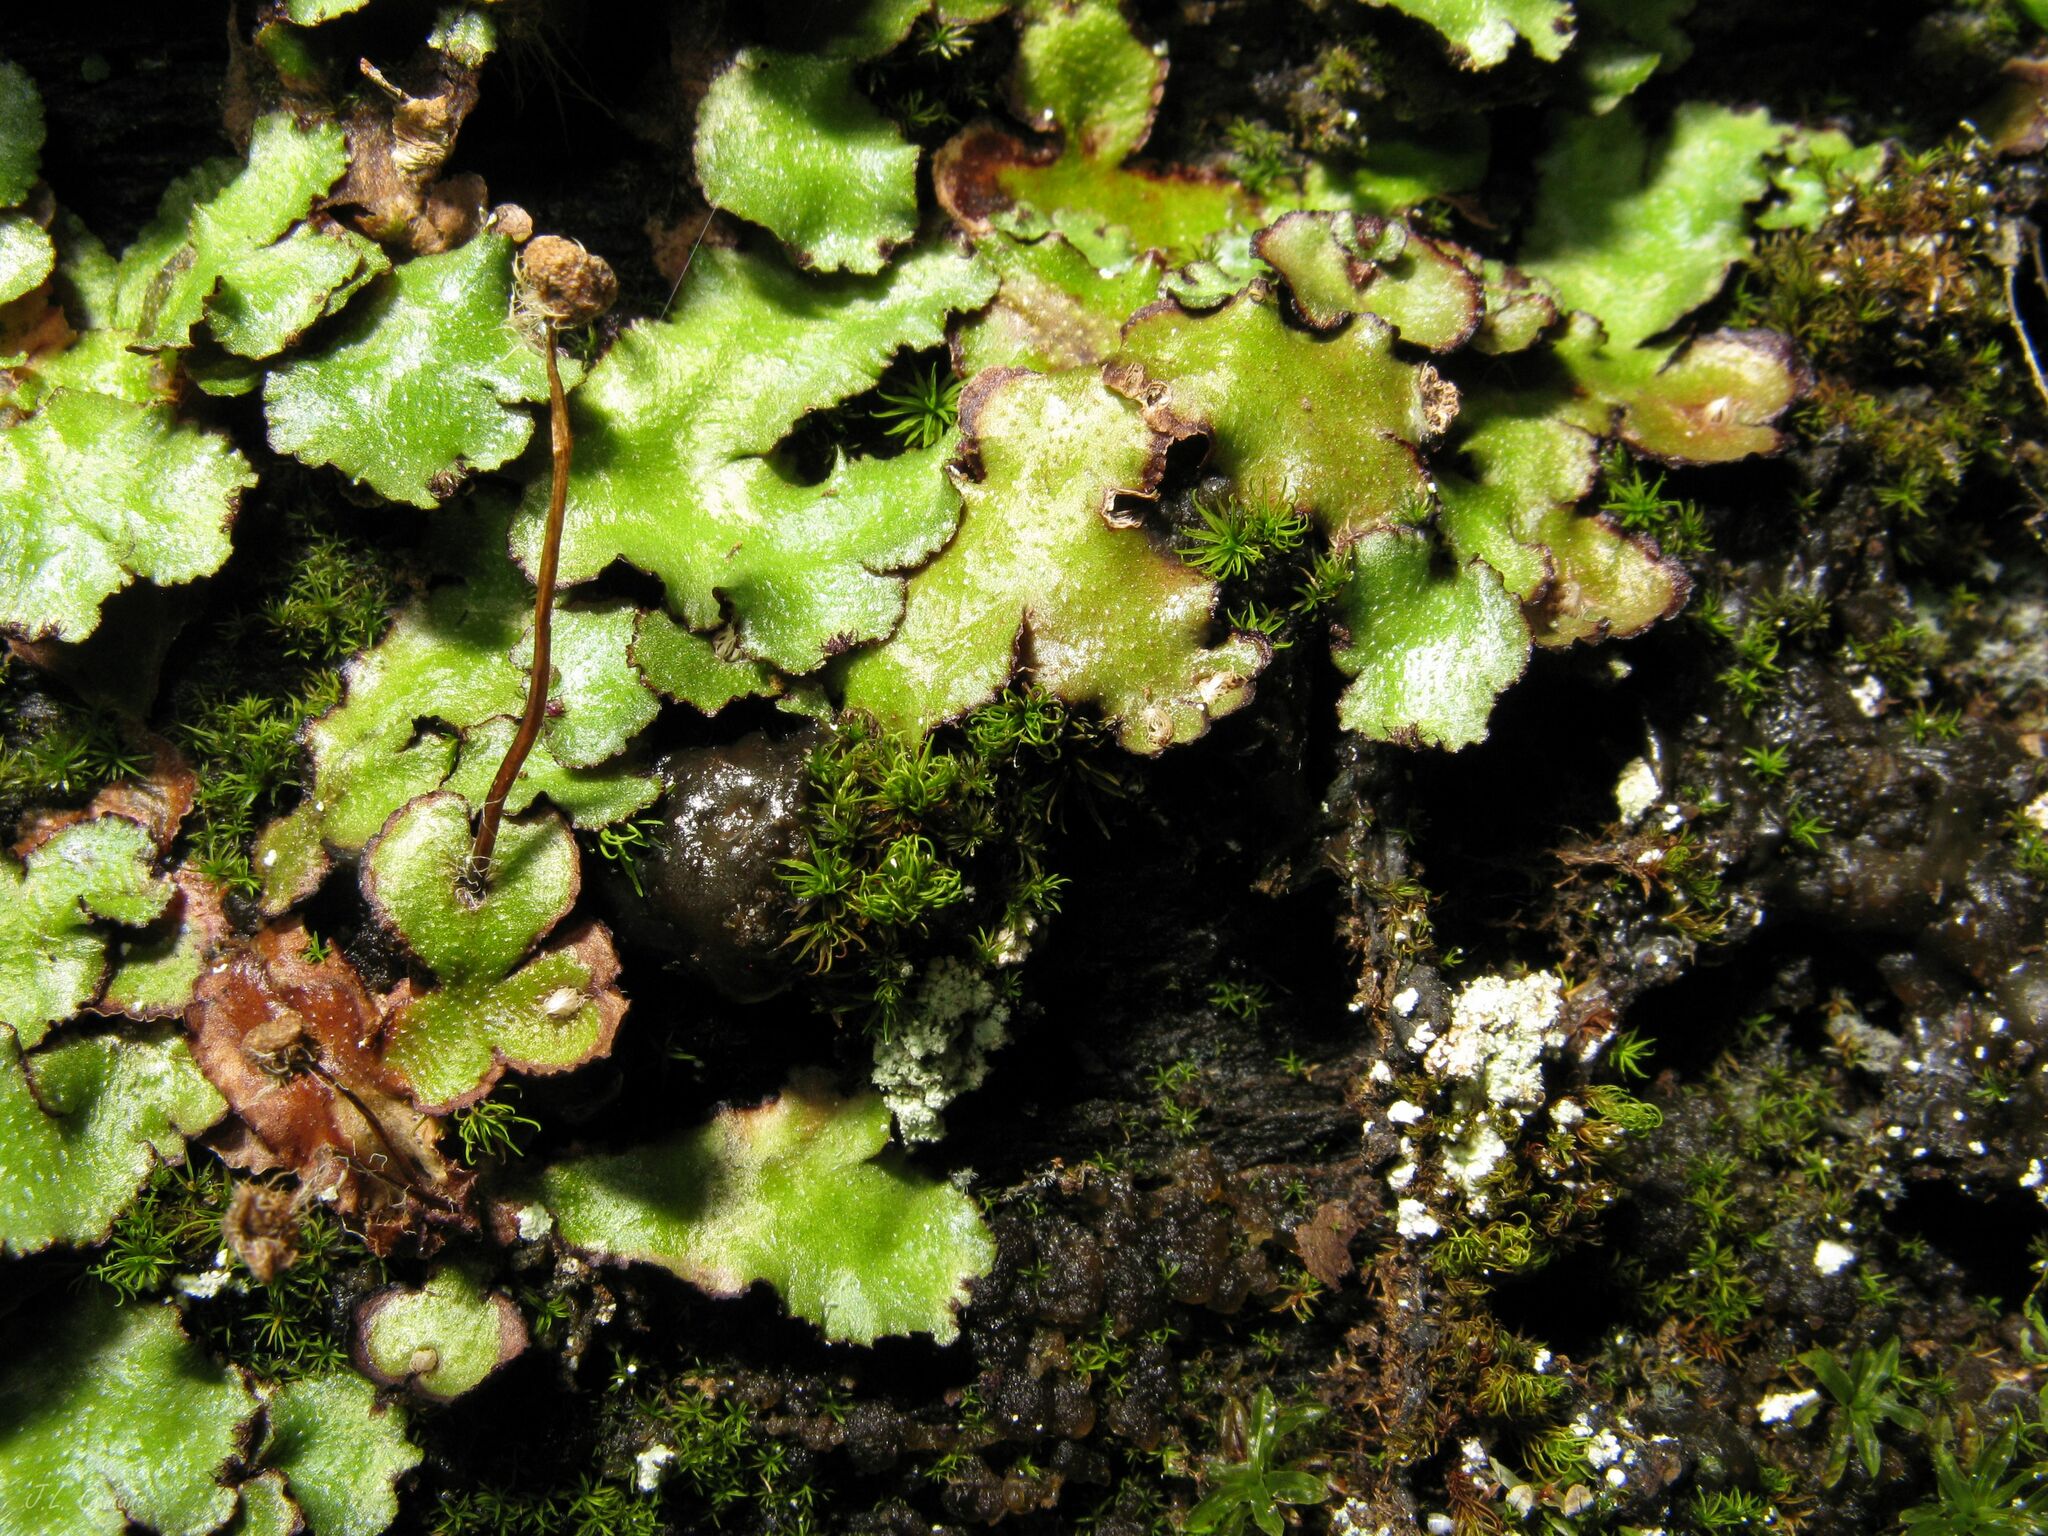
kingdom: Plantae
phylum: Marchantiophyta
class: Marchantiopsida
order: Marchantiales
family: Aytoniaceae
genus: Reboulia
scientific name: Reboulia hemisphaerica
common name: Purple-margined liverwort
